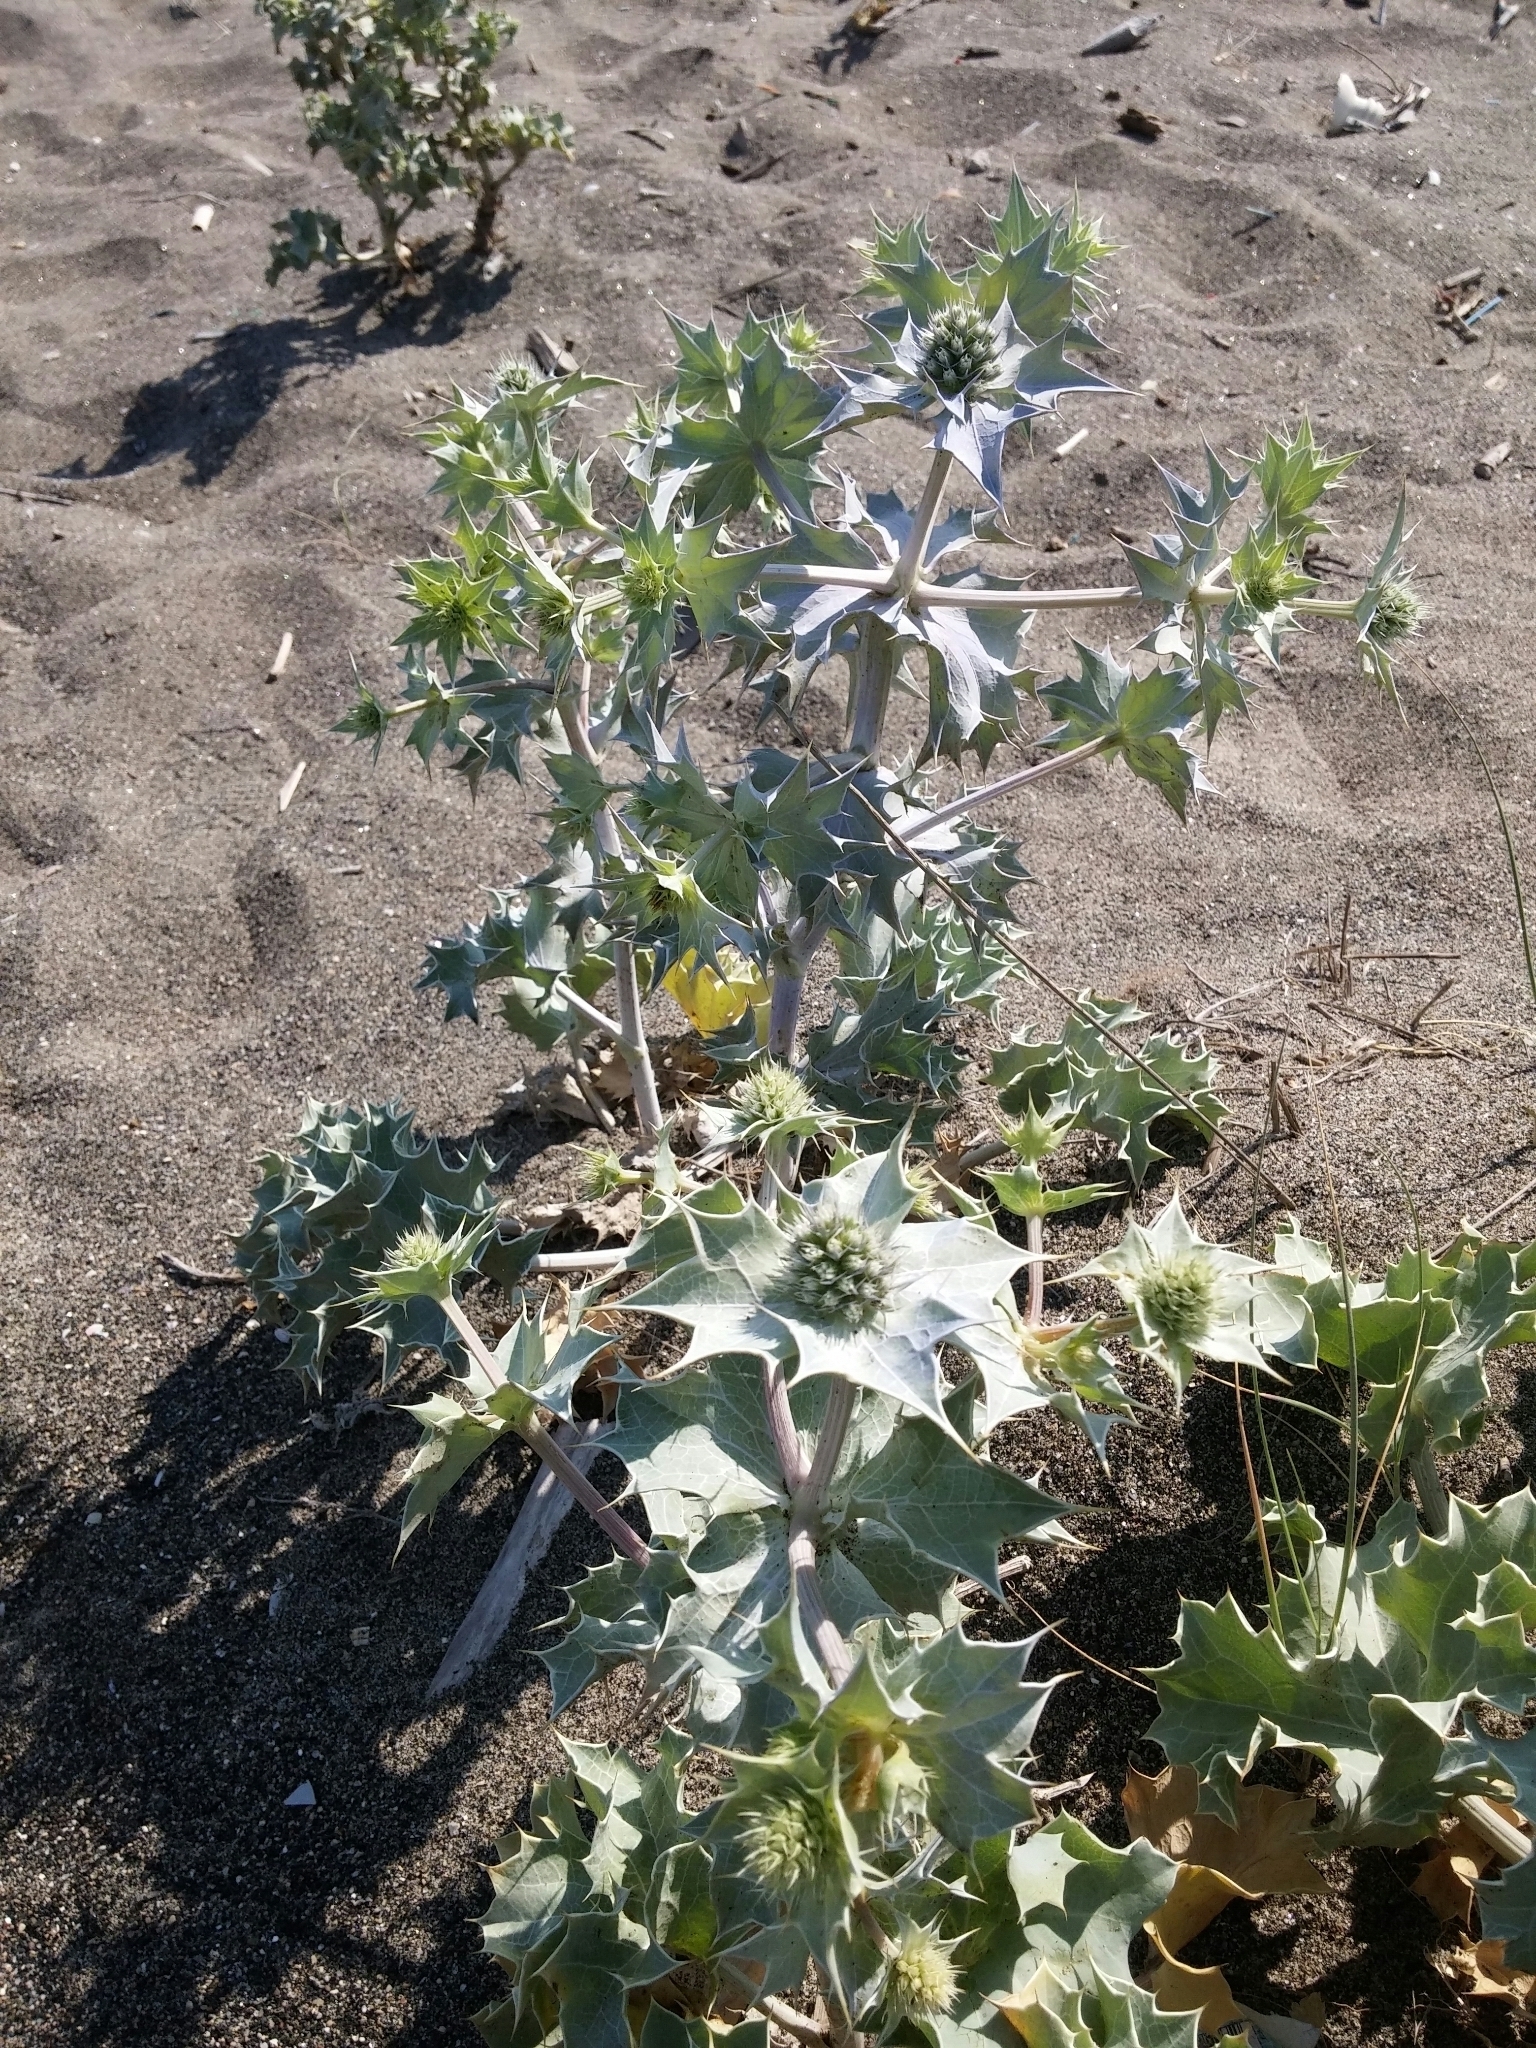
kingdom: Plantae
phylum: Tracheophyta
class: Magnoliopsida
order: Apiales
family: Apiaceae
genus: Eryngium
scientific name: Eryngium maritimum
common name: Sea-holly
